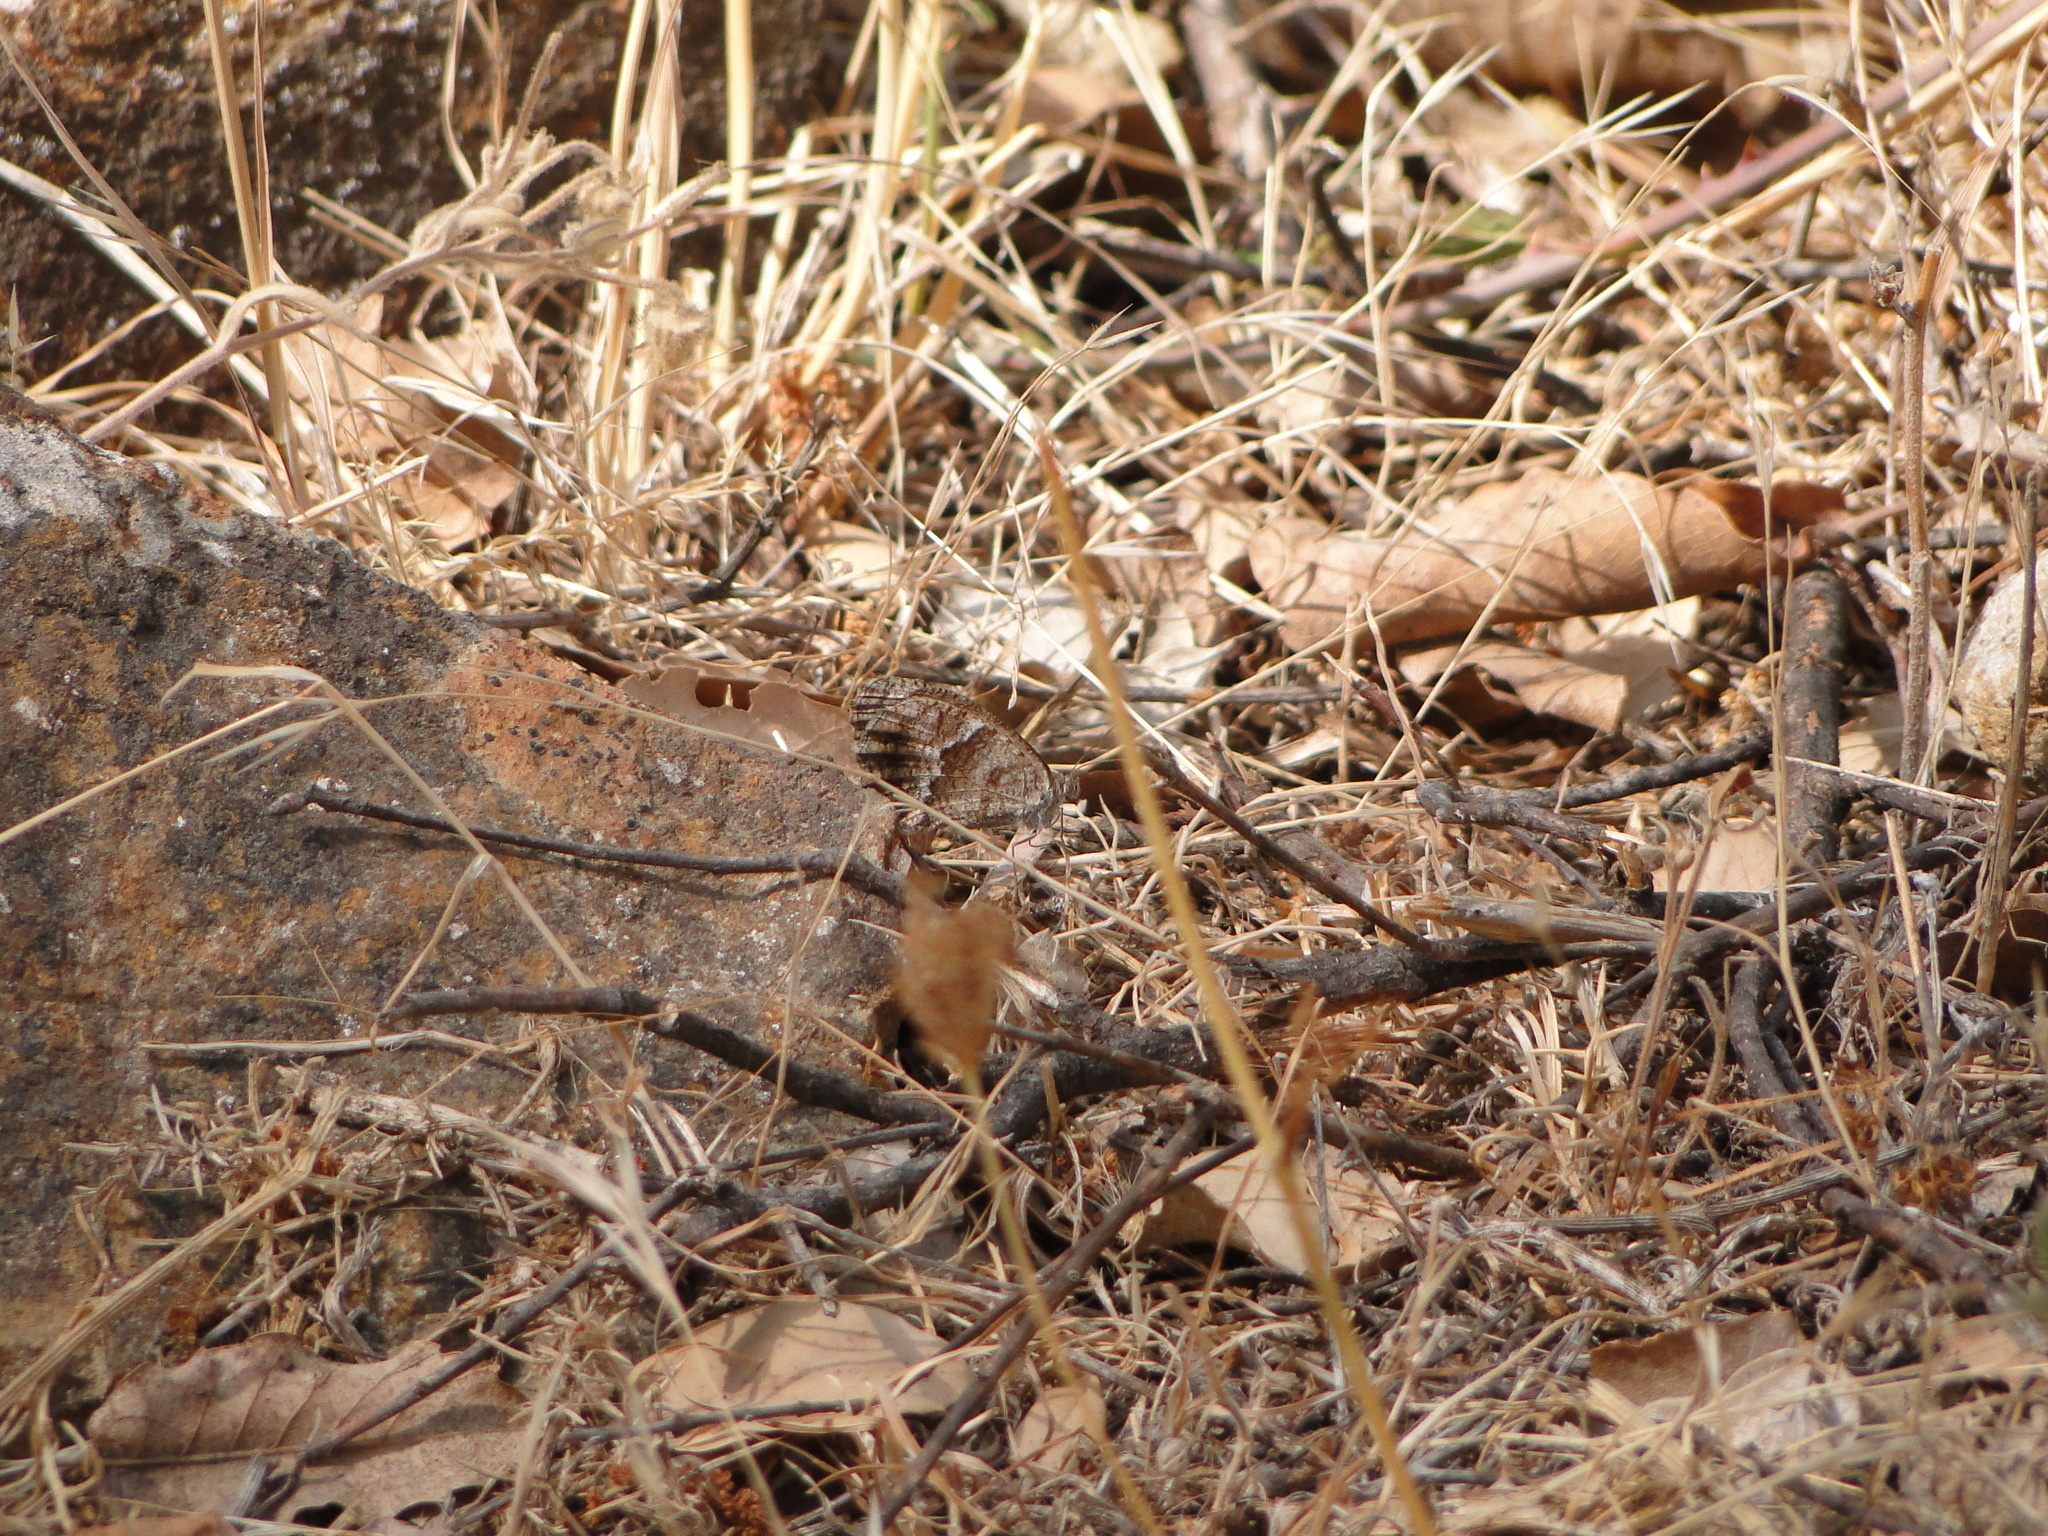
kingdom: Animalia
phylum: Arthropoda
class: Insecta
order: Lepidoptera
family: Nymphalidae
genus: Pyronia
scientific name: Pyronia cecilia
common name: Southern gatekeeper
